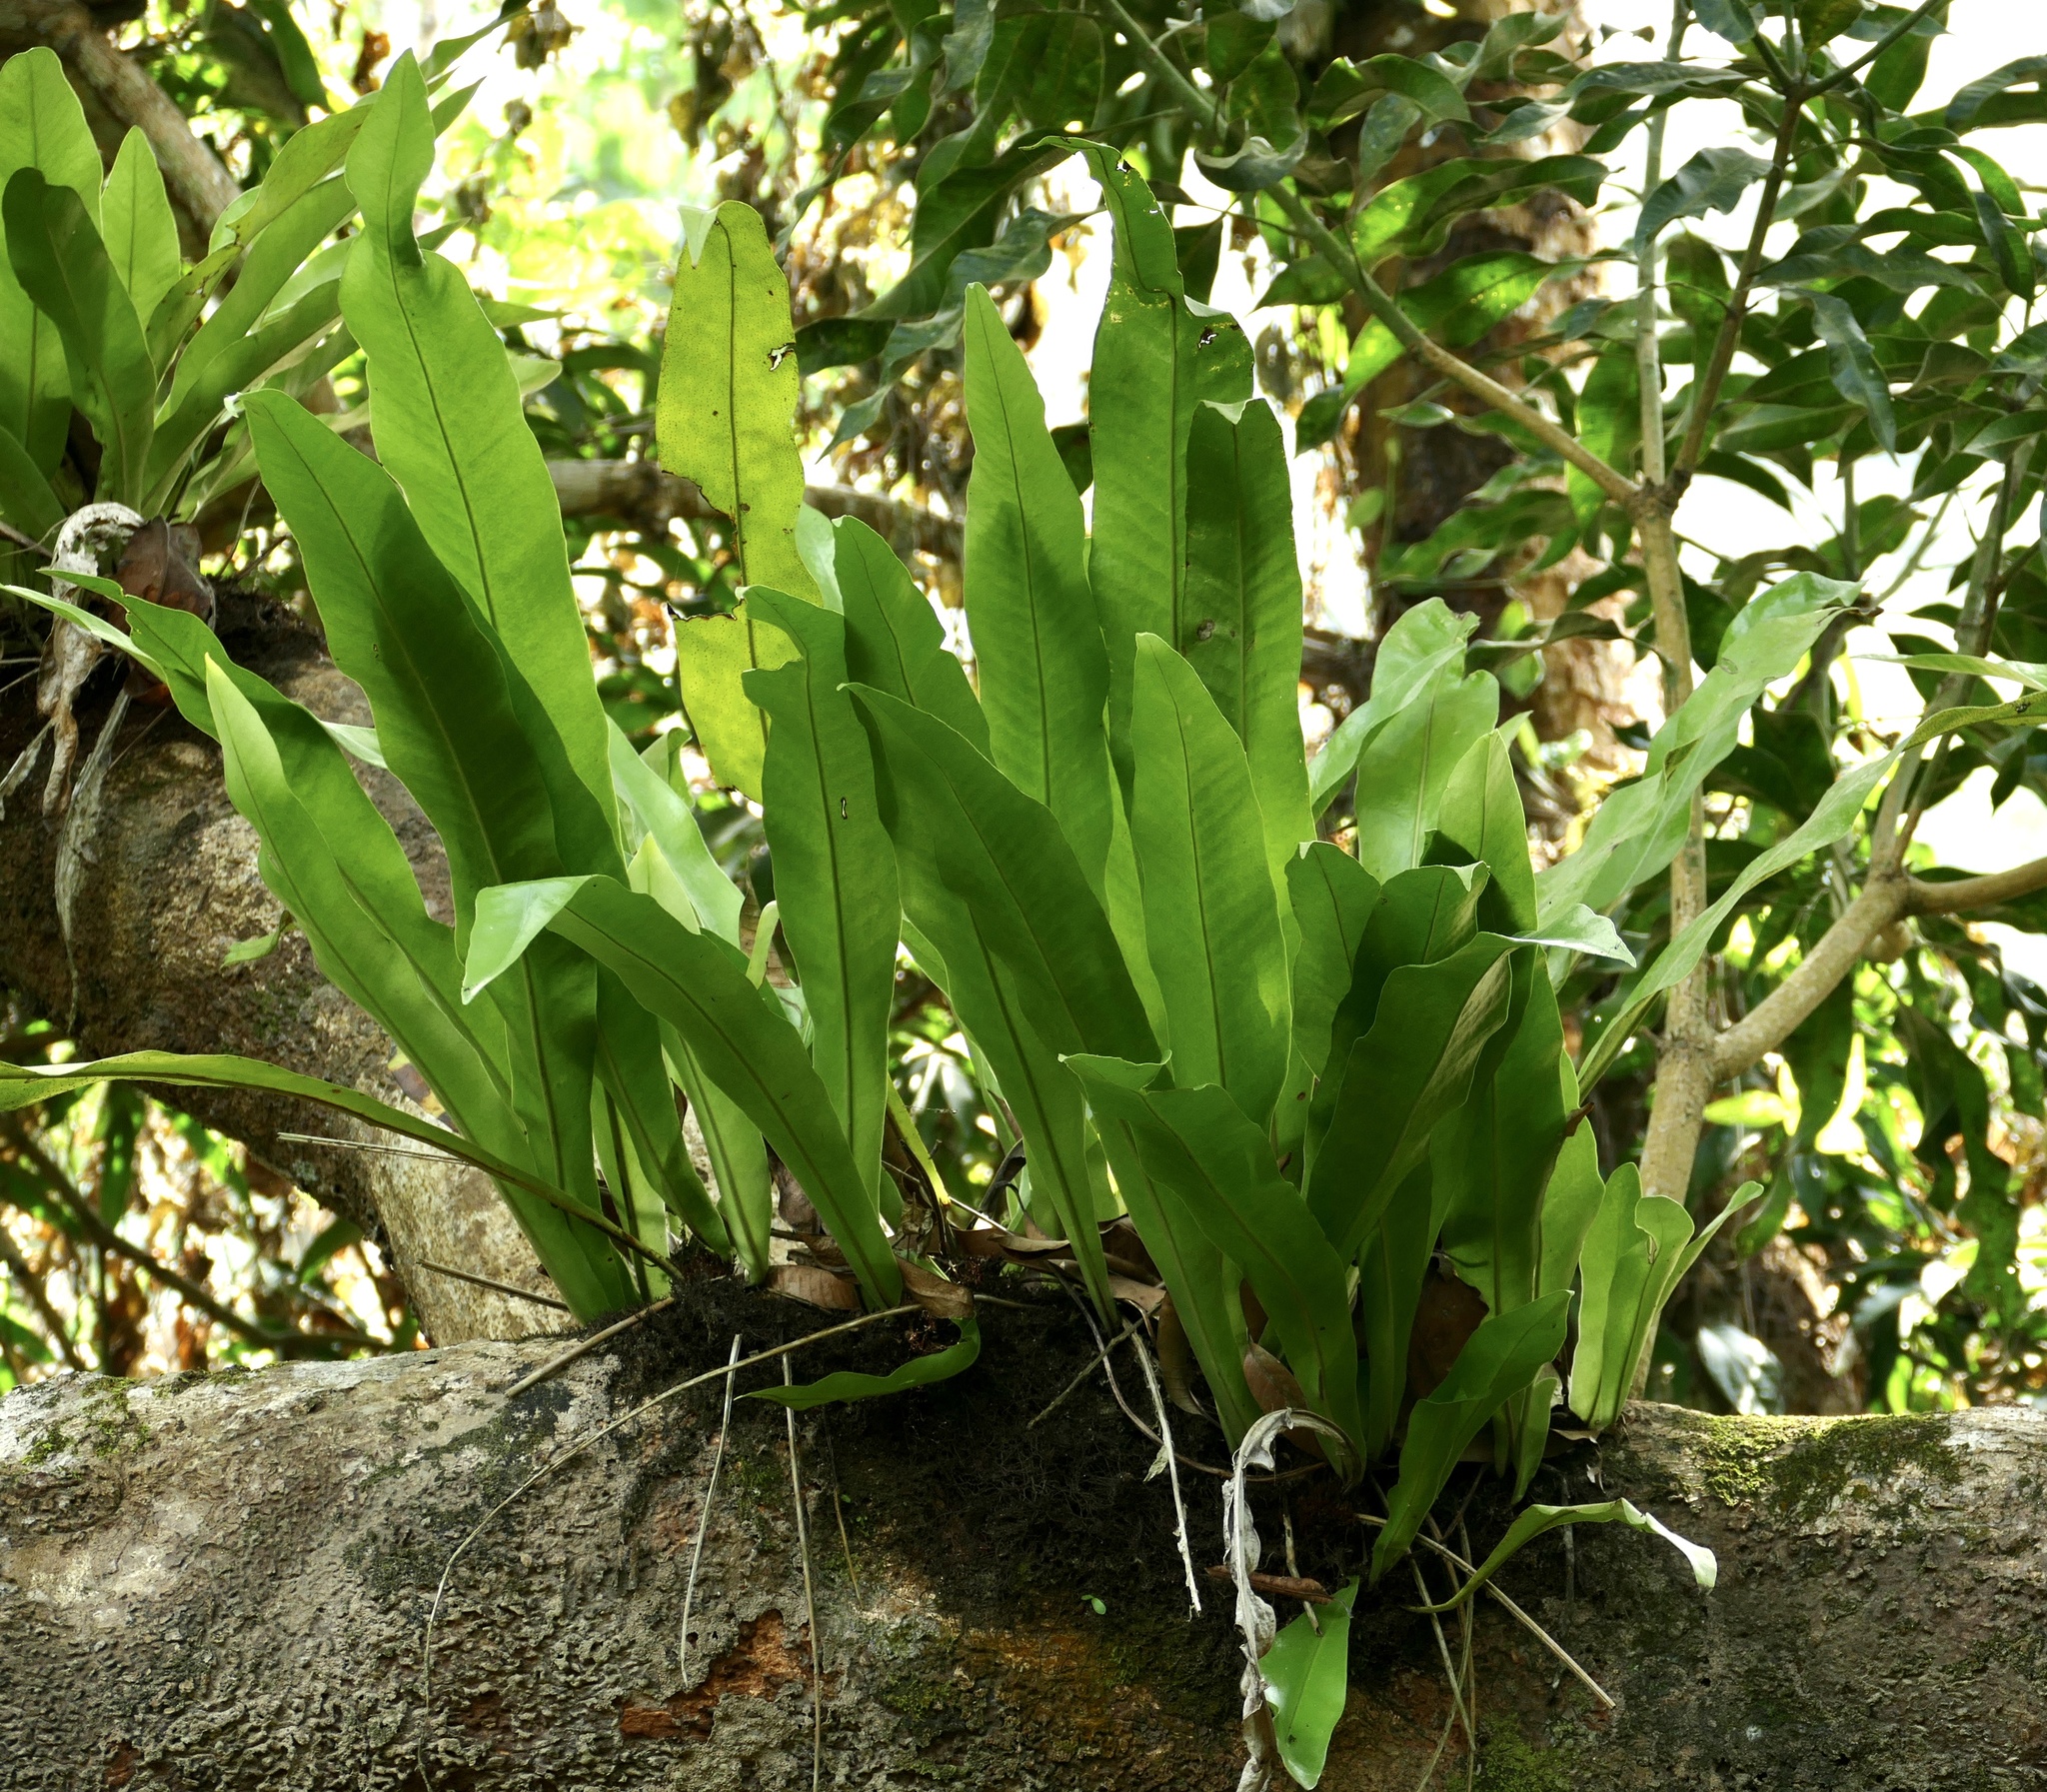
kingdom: Plantae
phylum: Tracheophyta
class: Polypodiopsida
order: Polypodiales
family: Polypodiaceae
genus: Microsorum
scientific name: Microsorum punctatum
